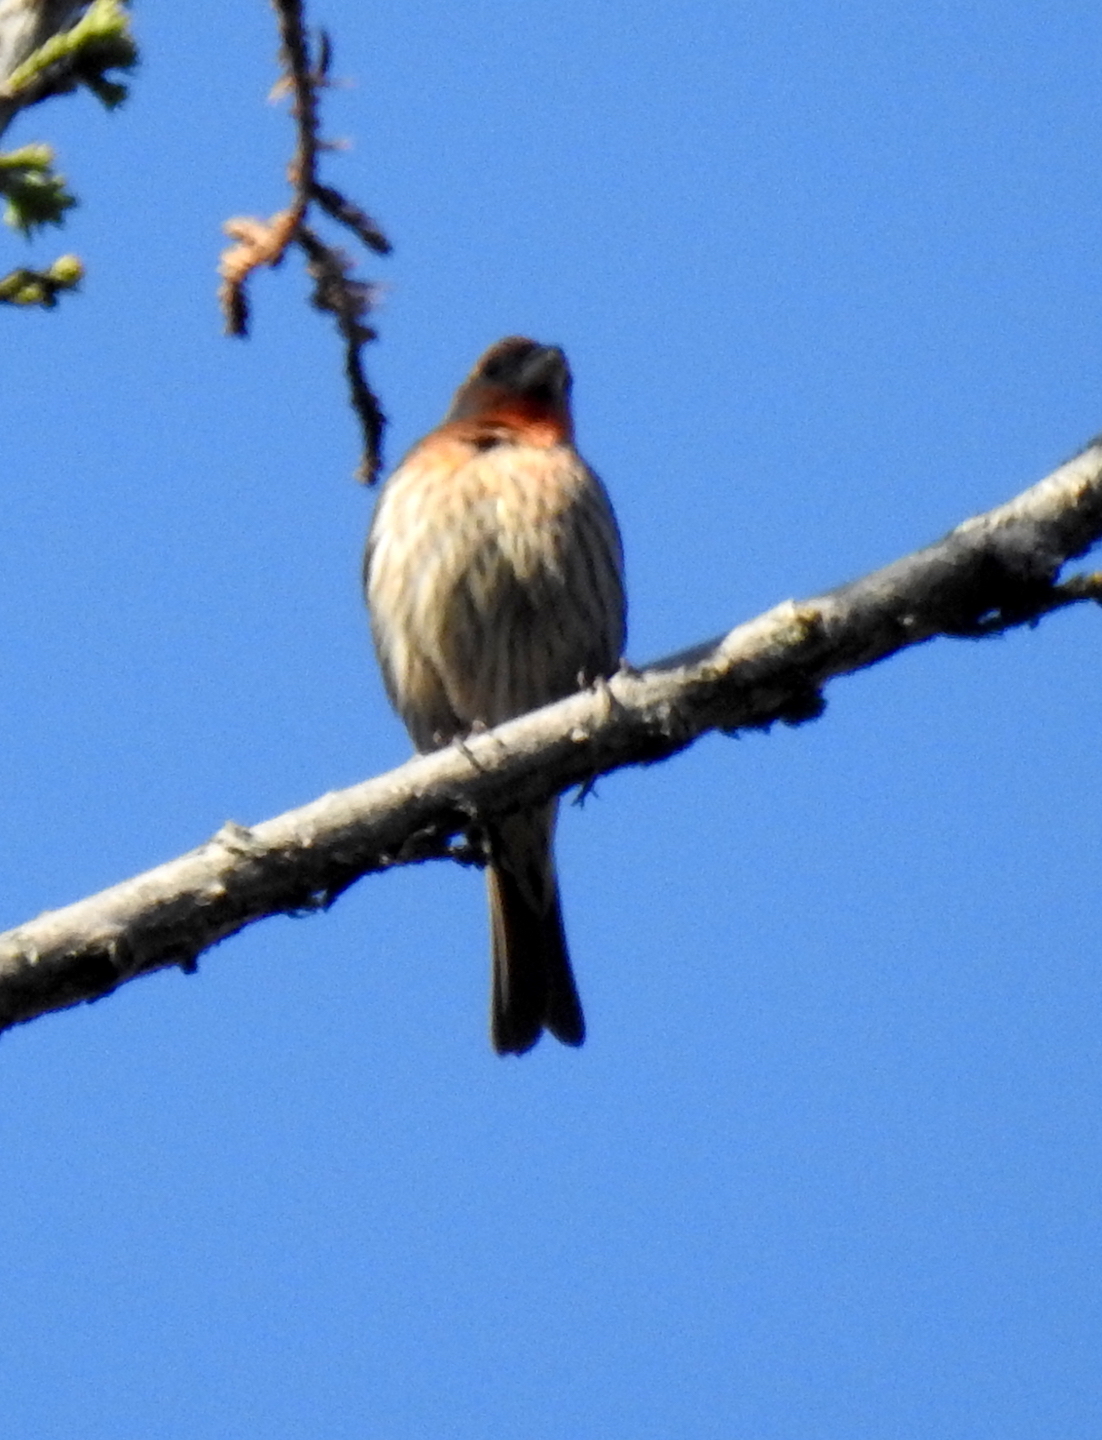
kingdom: Animalia
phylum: Chordata
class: Aves
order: Passeriformes
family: Fringillidae
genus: Haemorhous
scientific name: Haemorhous mexicanus
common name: House finch
